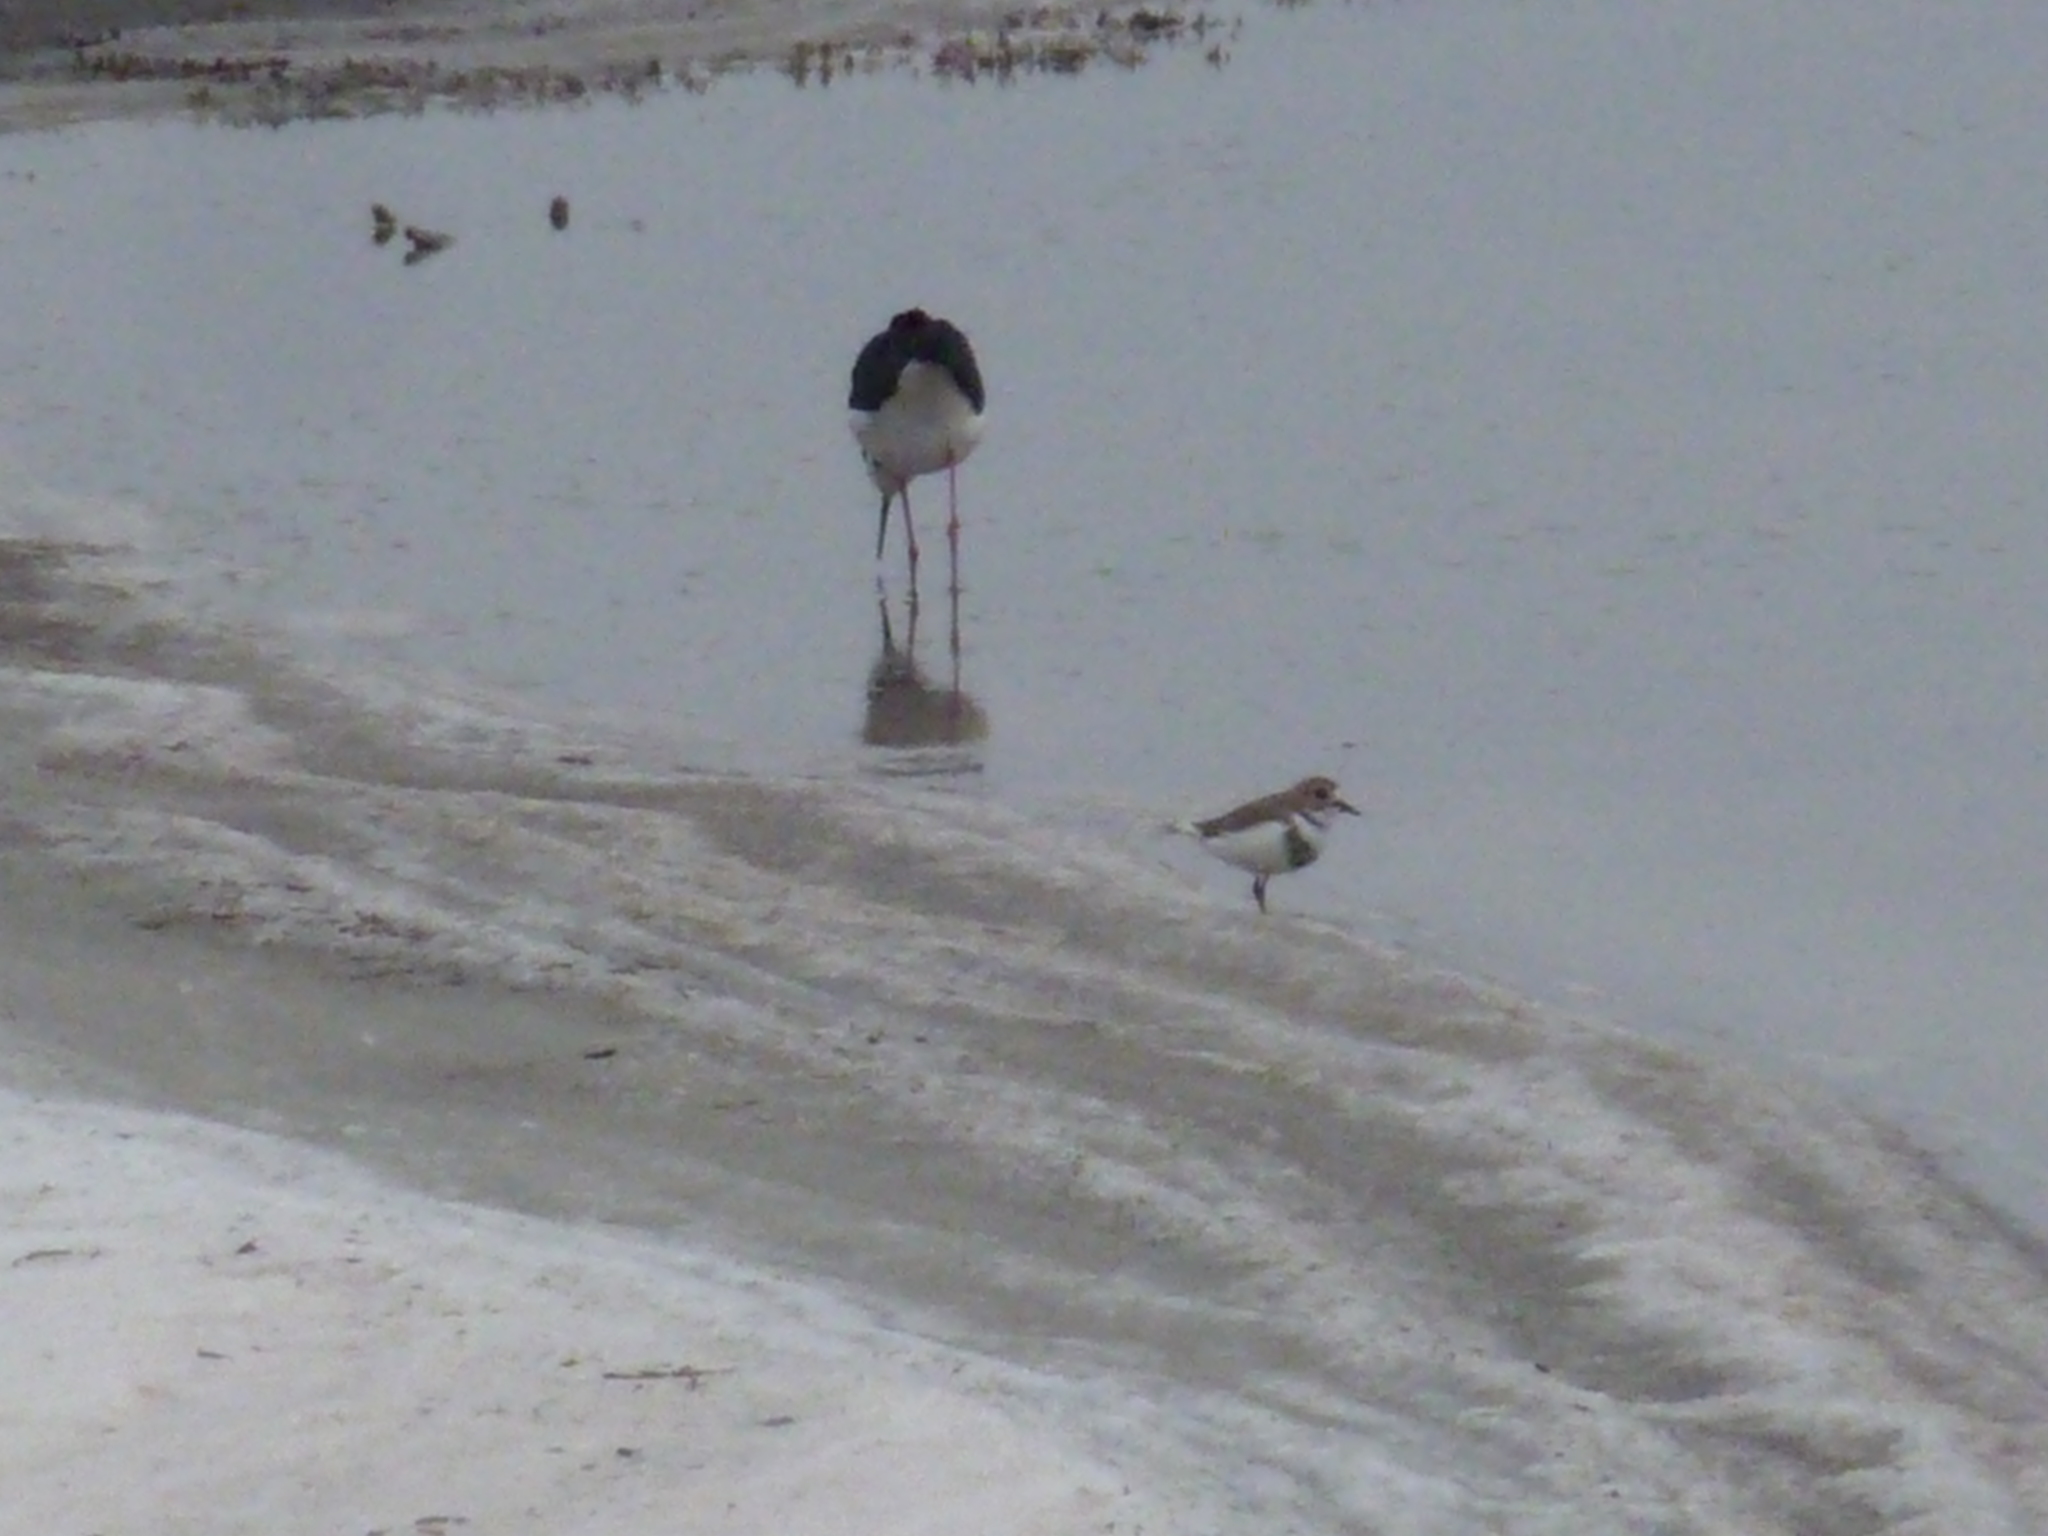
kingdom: Animalia
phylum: Chordata
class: Aves
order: Charadriiformes
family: Charadriidae
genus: Anarhynchus
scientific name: Anarhynchus
